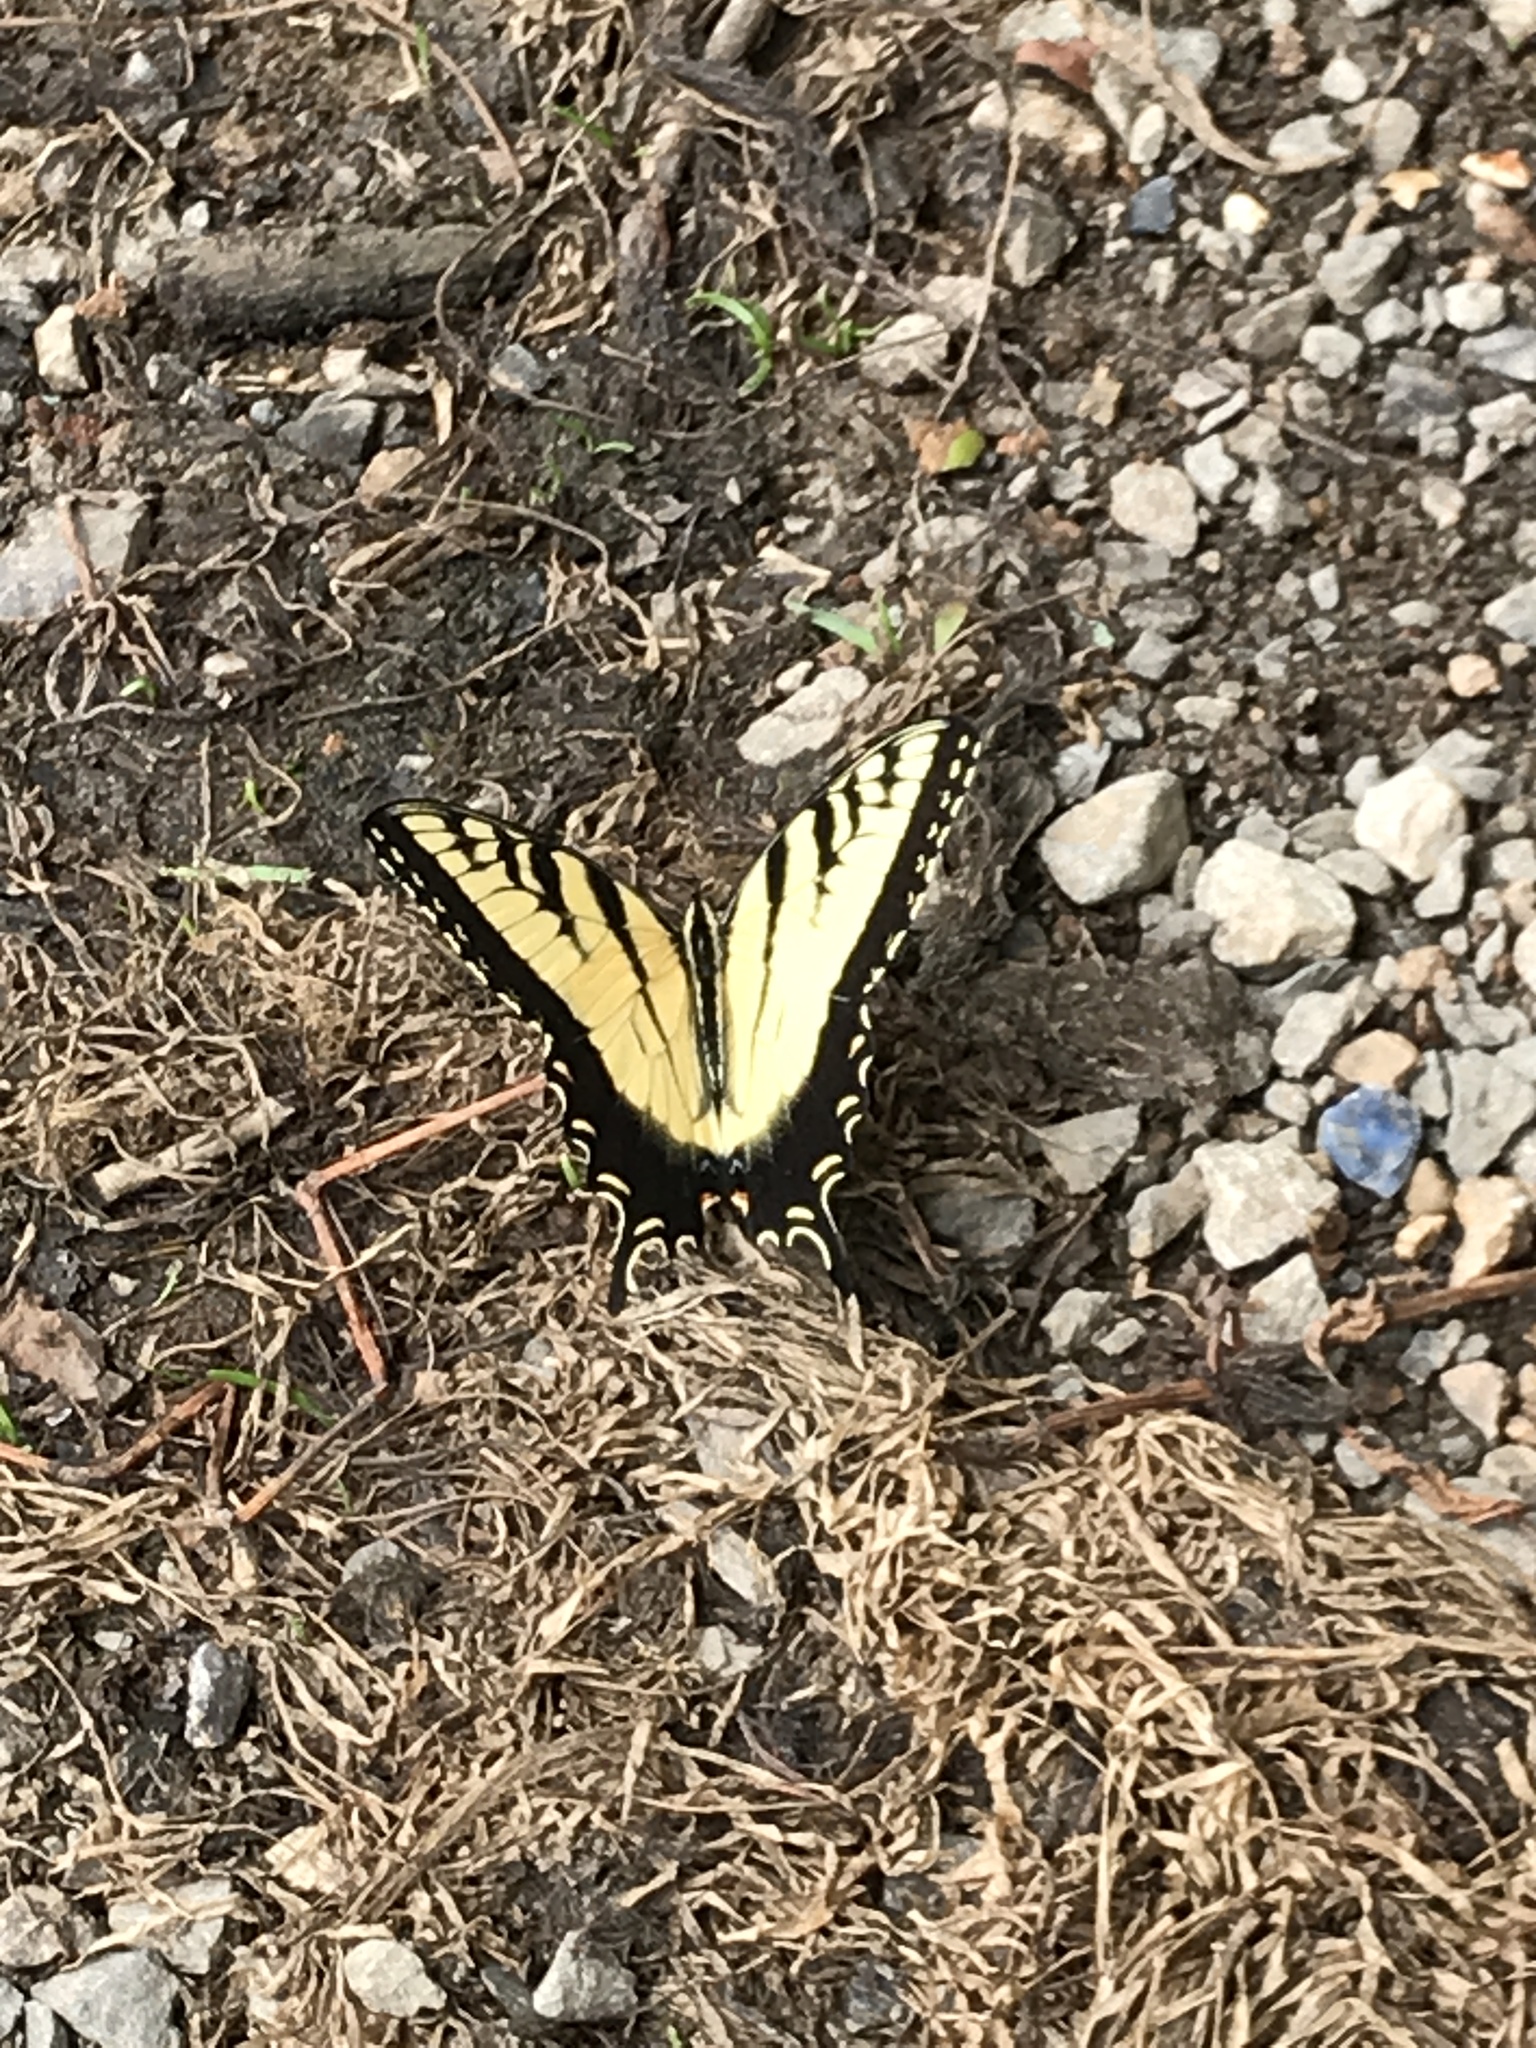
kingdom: Animalia
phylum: Arthropoda
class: Insecta
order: Lepidoptera
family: Papilionidae
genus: Papilio
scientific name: Papilio glaucus
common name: Tiger swallowtail
